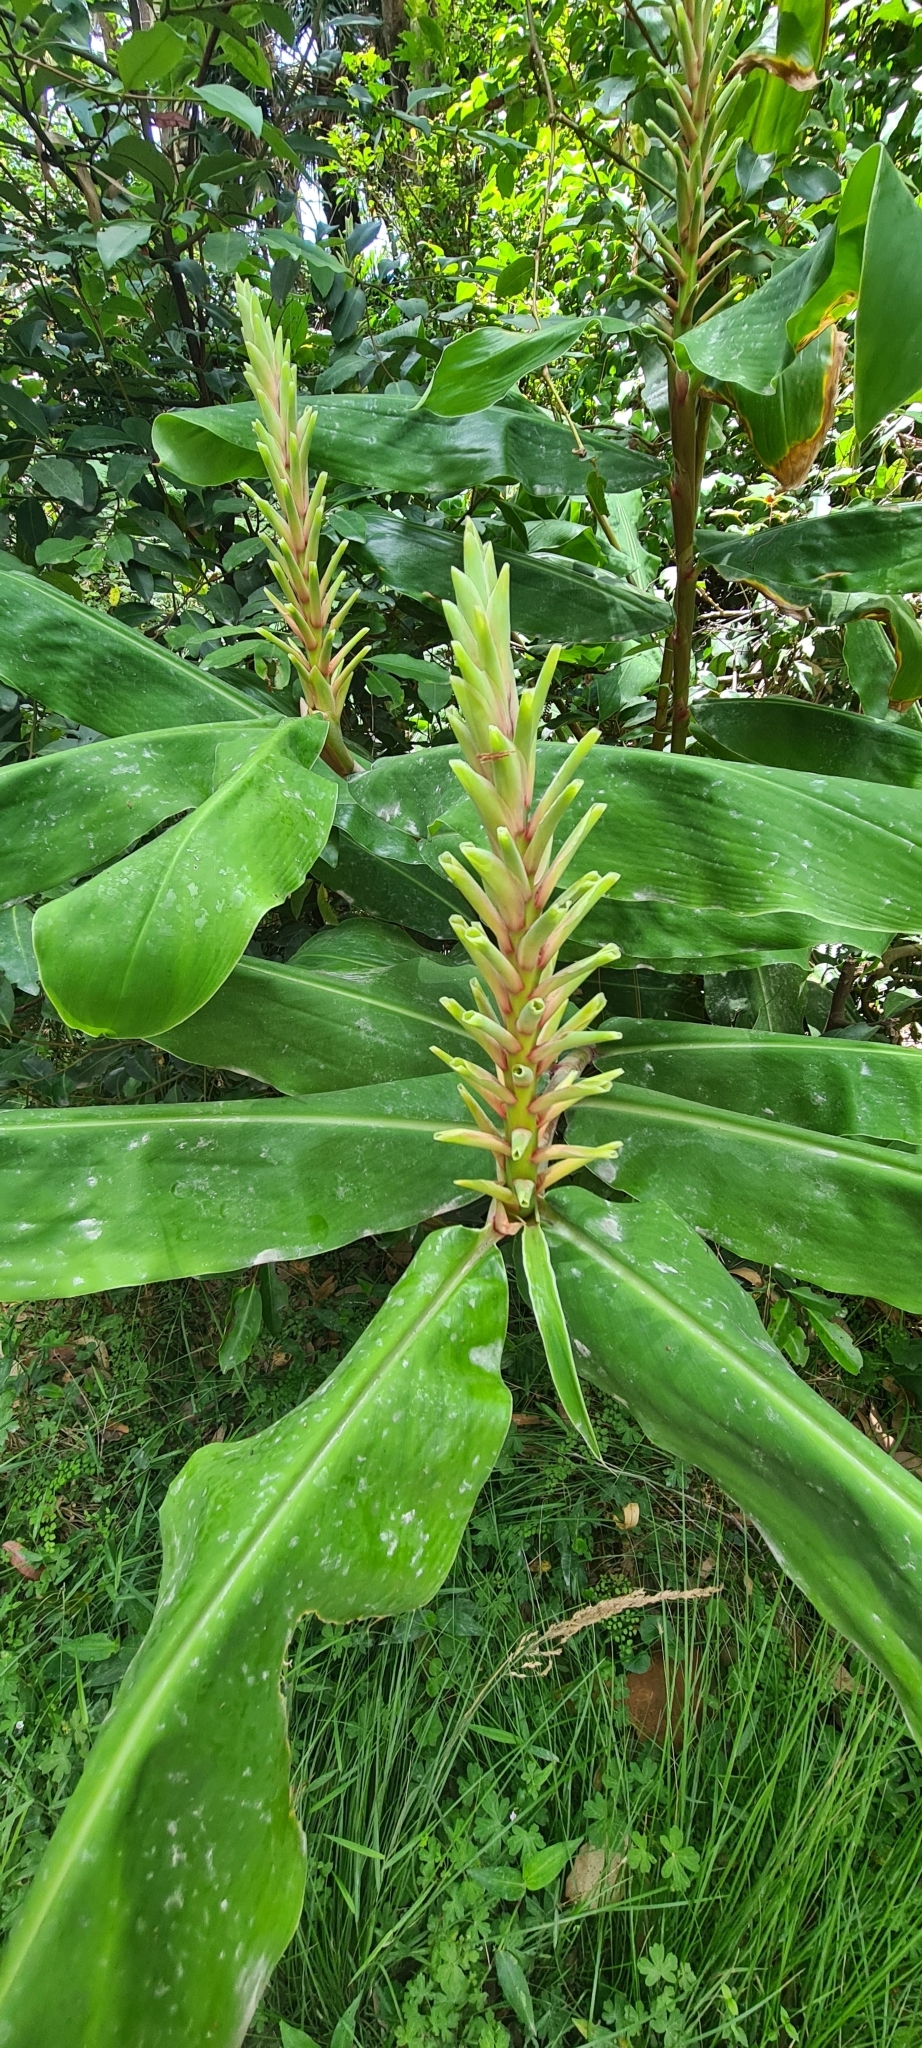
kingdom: Plantae
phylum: Tracheophyta
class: Liliopsida
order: Zingiberales
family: Zingiberaceae
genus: Hedychium
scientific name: Hedychium gardnerianum
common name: Himalayan ginger
